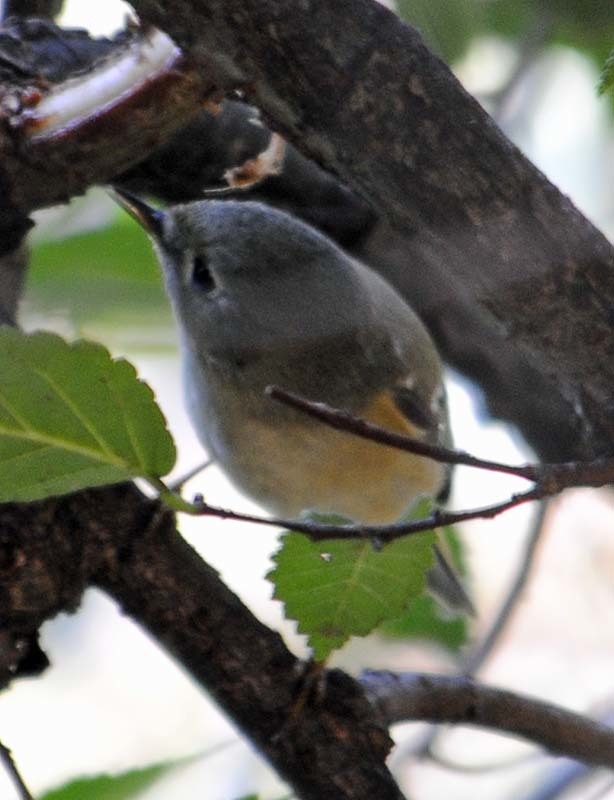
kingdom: Animalia
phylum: Chordata
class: Aves
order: Passeriformes
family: Regulidae
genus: Regulus
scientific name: Regulus calendula
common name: Ruby-crowned kinglet
